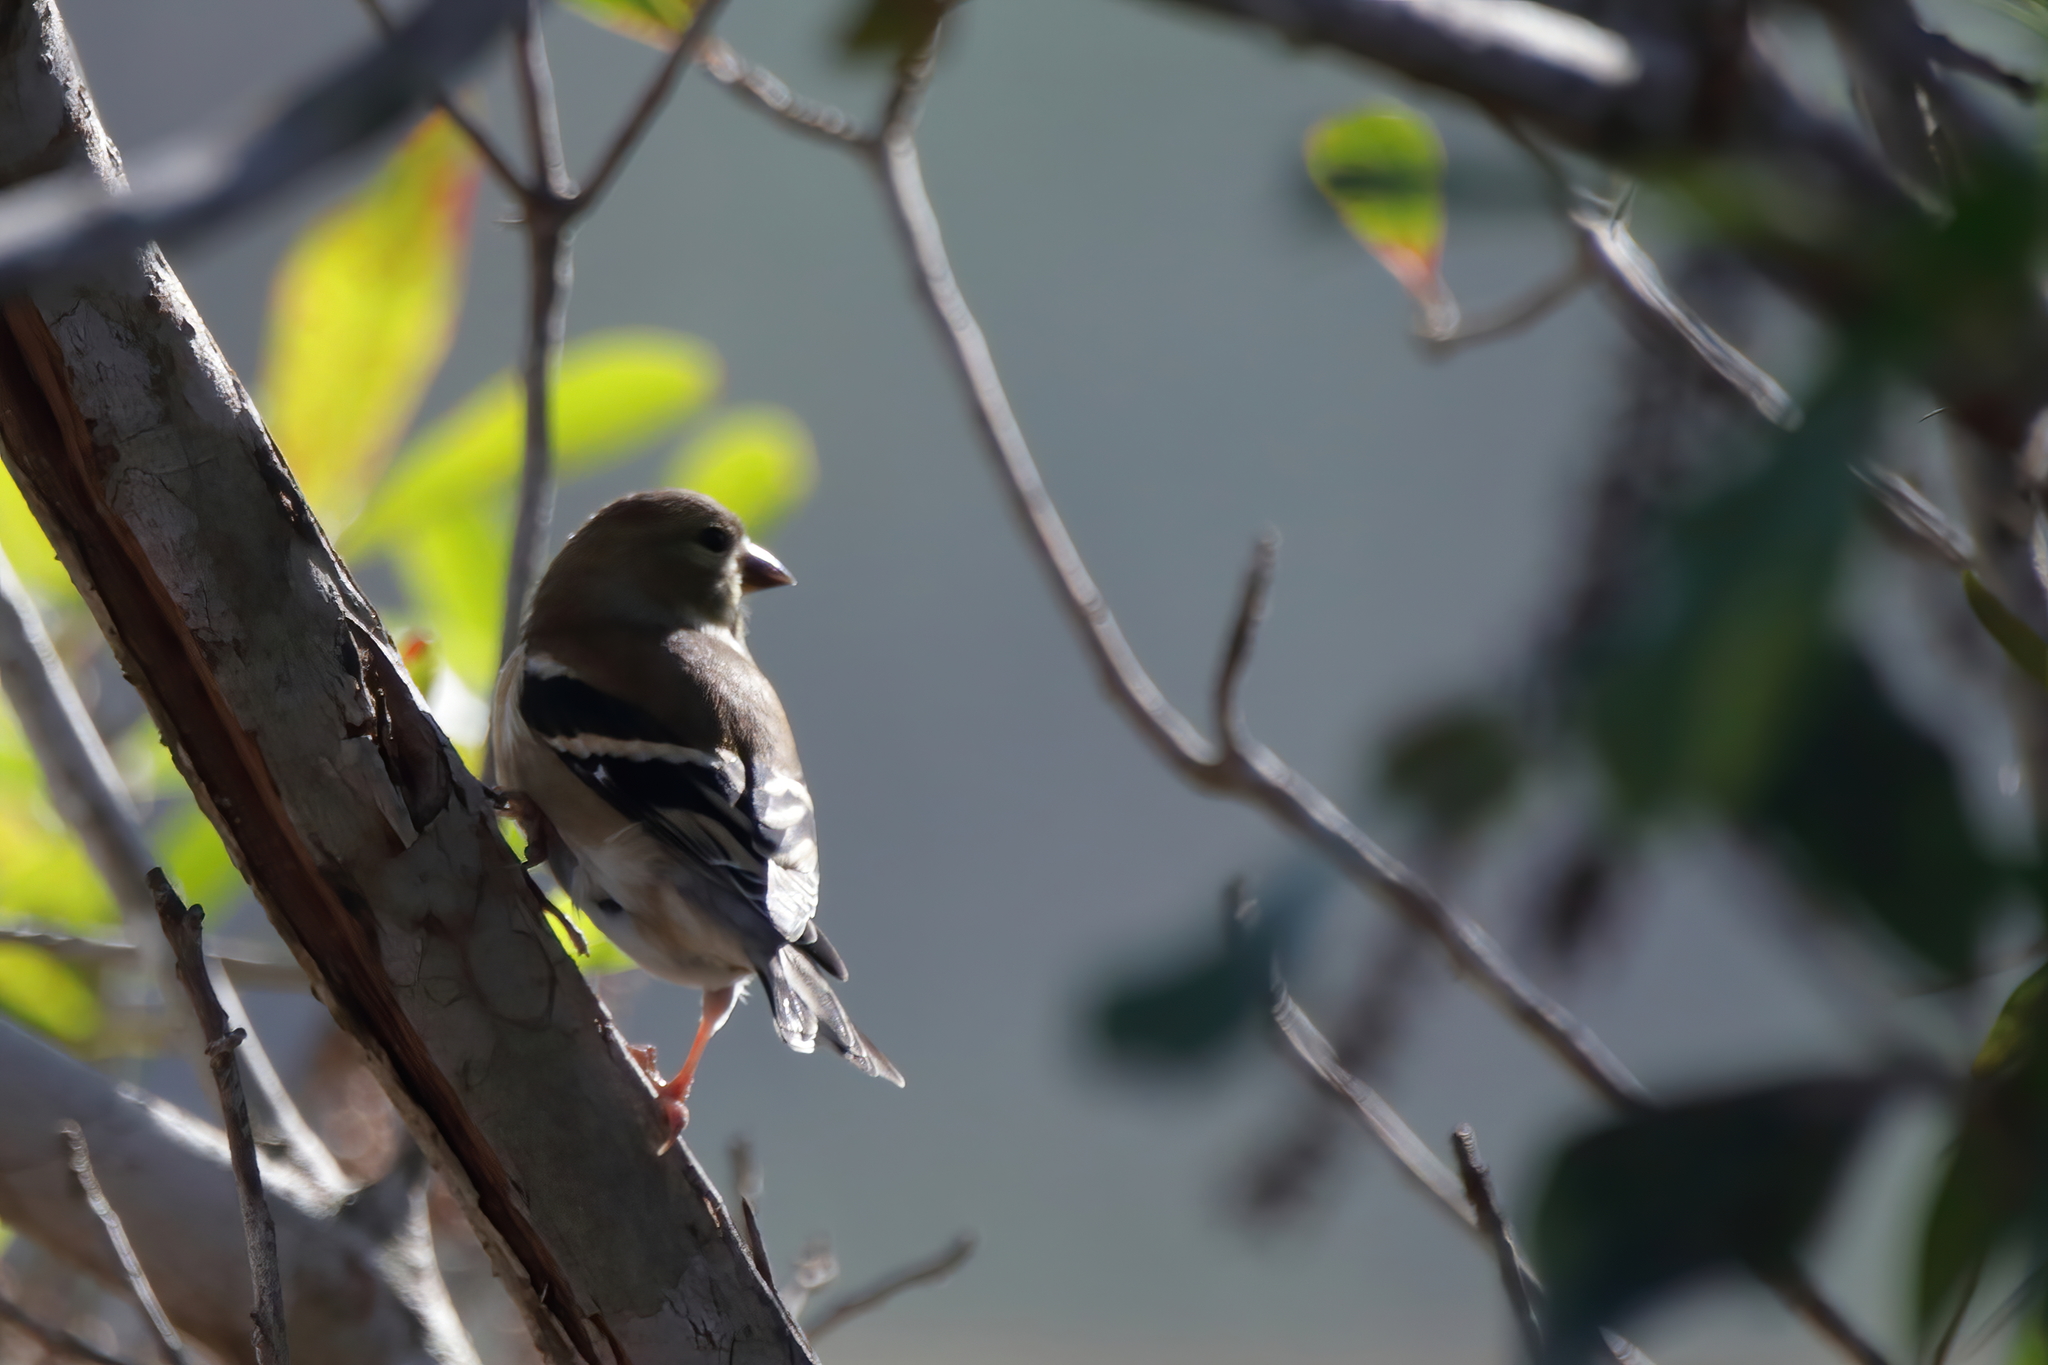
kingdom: Animalia
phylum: Chordata
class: Aves
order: Passeriformes
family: Fringillidae
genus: Spinus
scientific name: Spinus tristis
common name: American goldfinch
